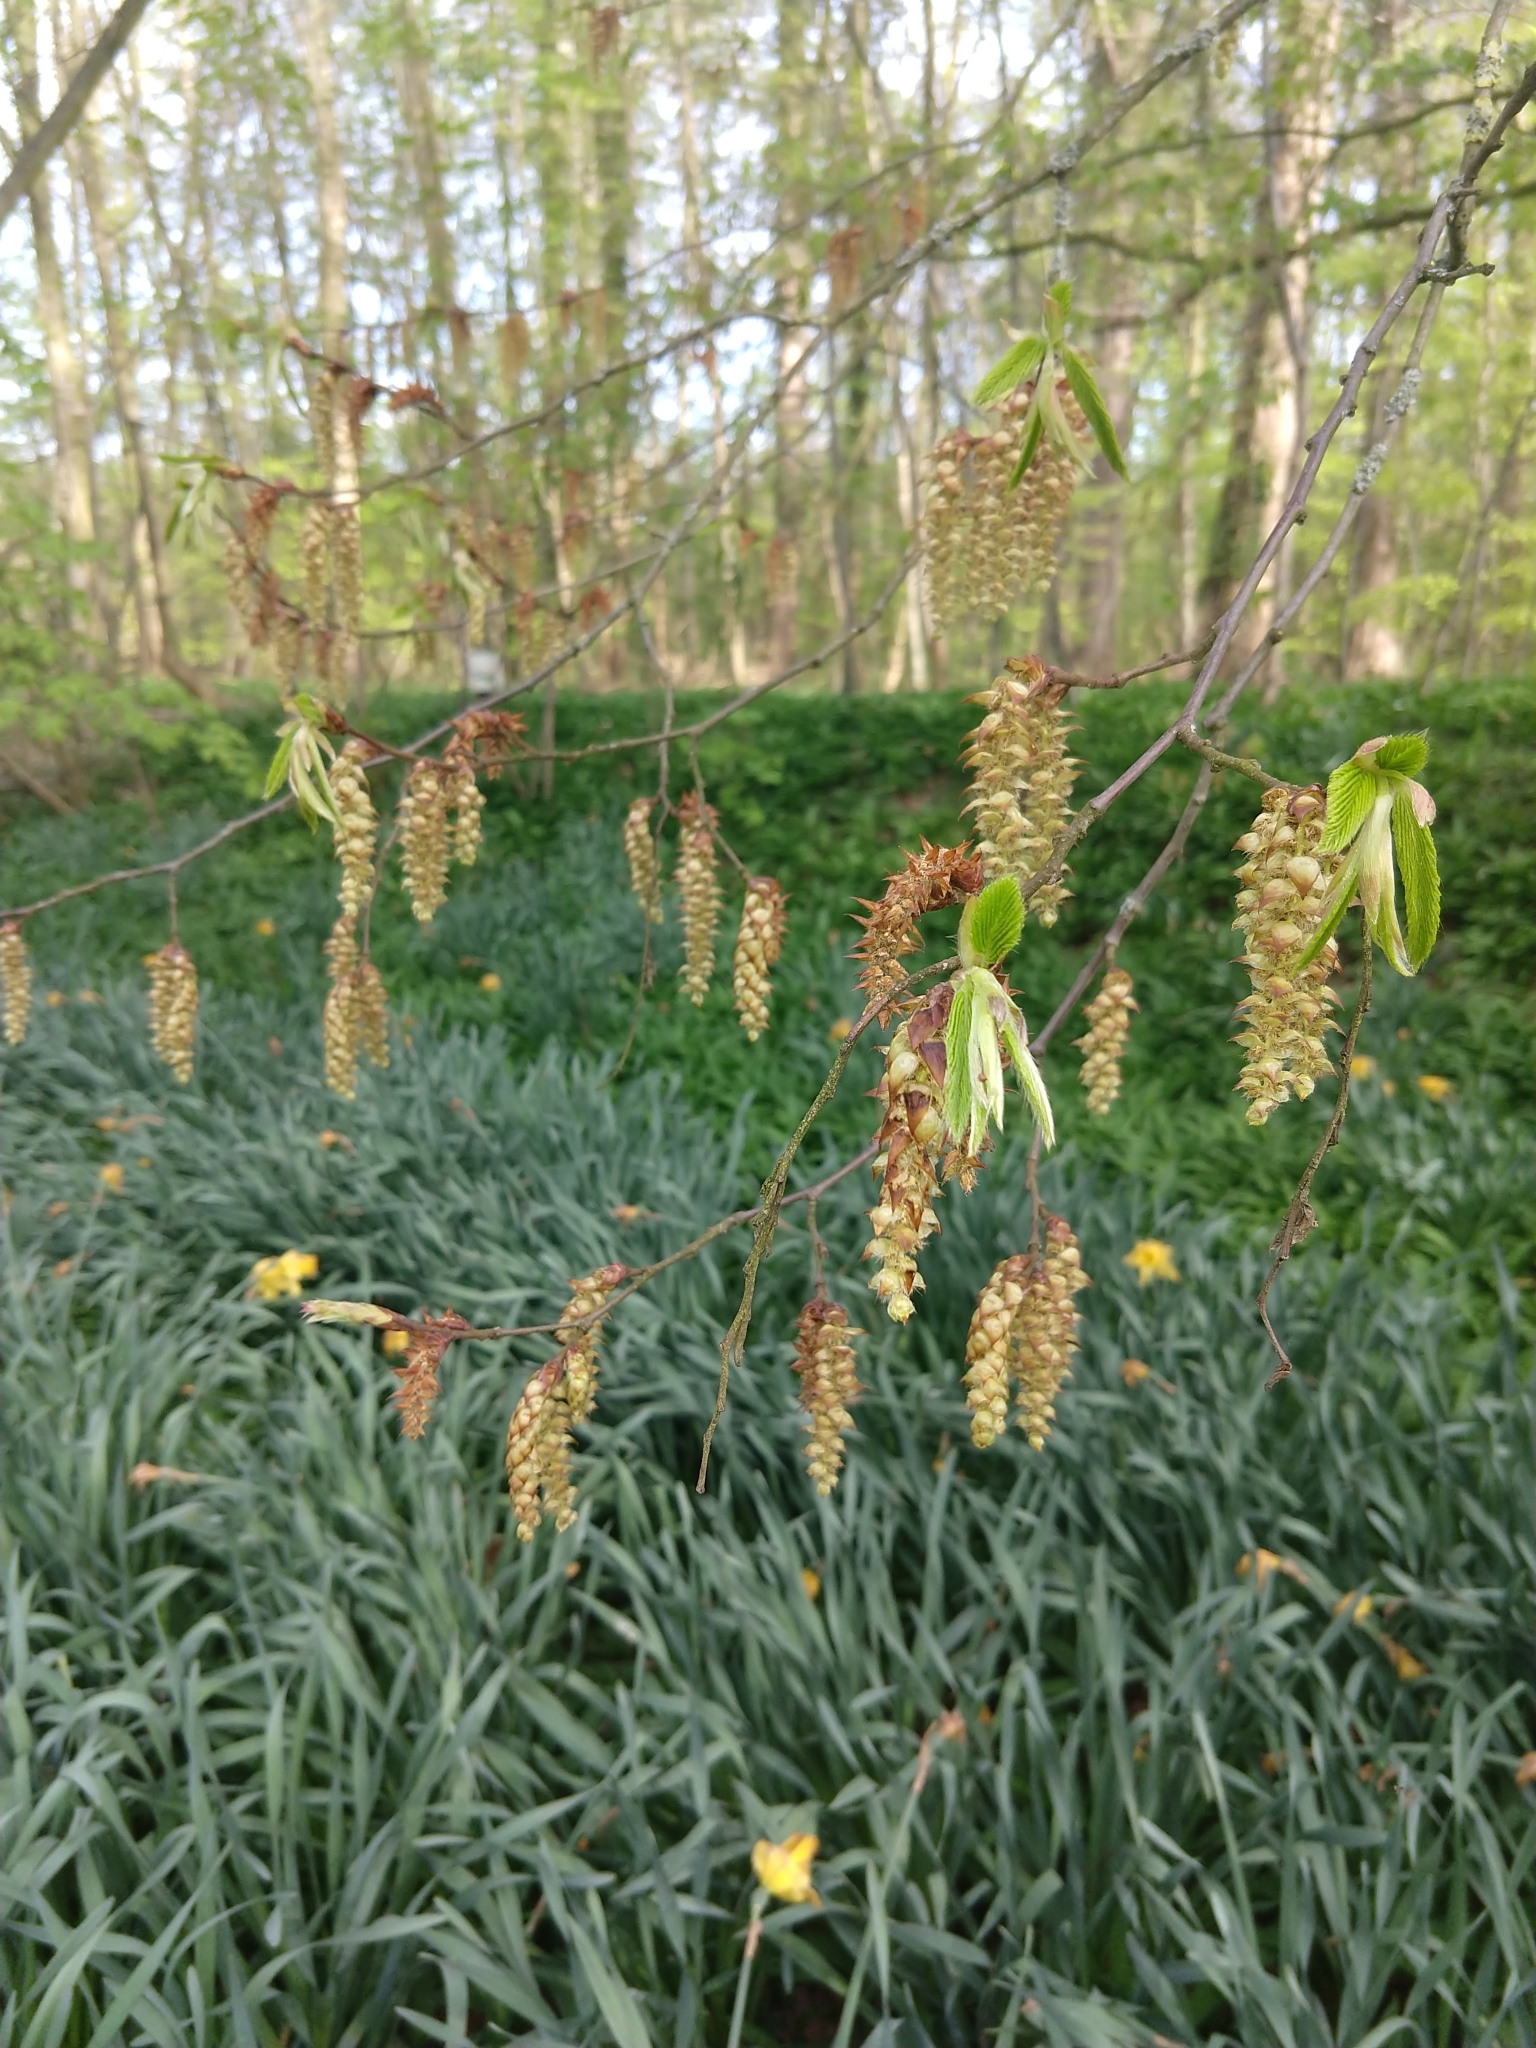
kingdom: Plantae
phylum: Tracheophyta
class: Magnoliopsida
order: Fagales
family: Betulaceae
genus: Carpinus
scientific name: Carpinus betulus
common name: Hornbeam
